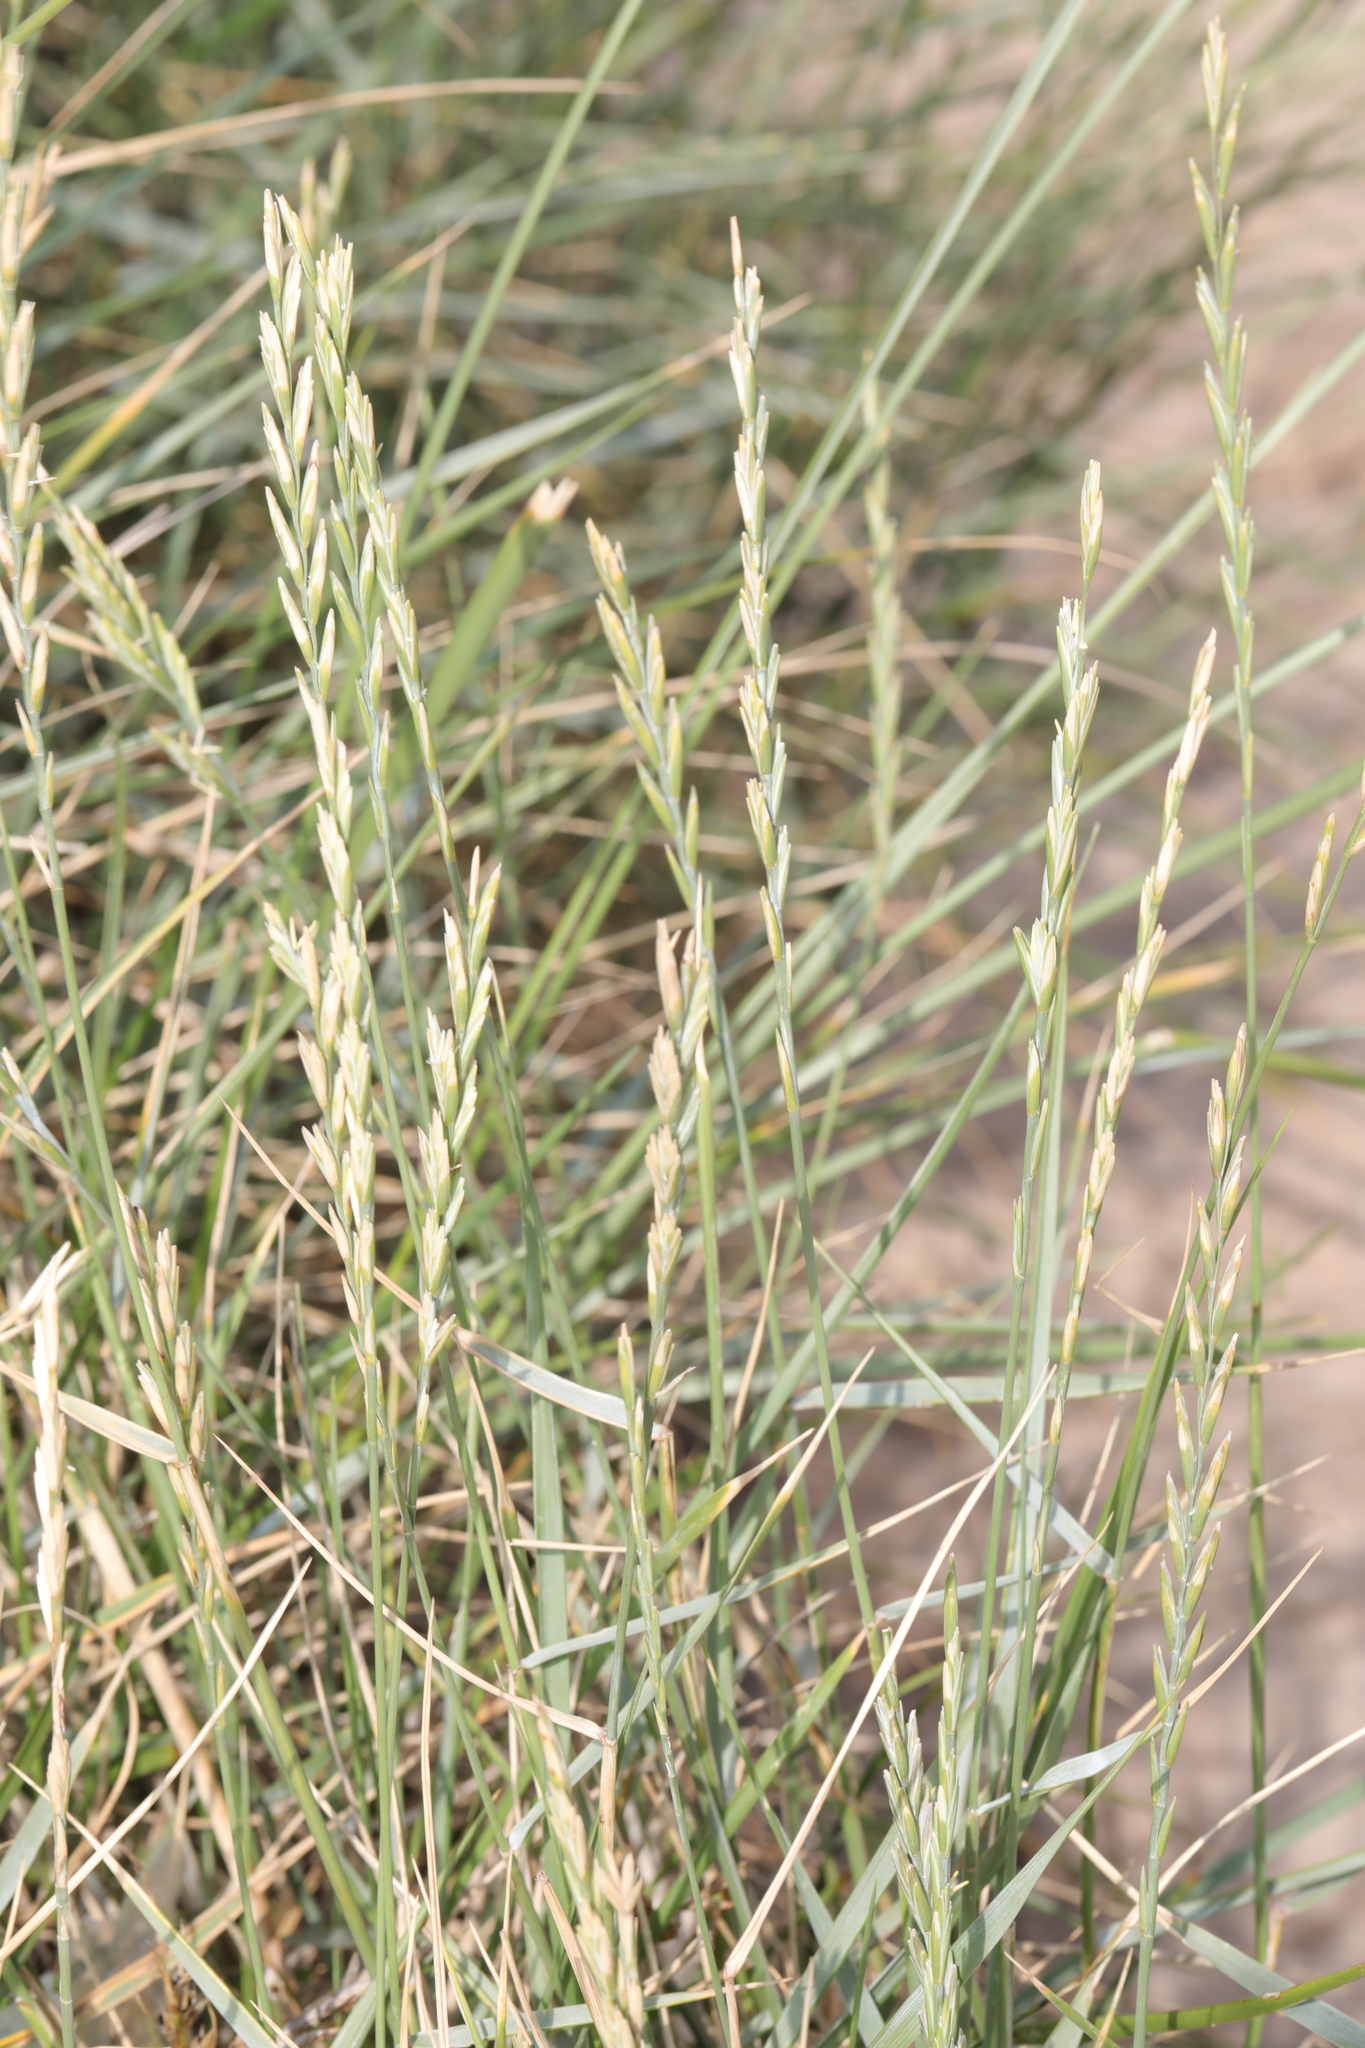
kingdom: Plantae
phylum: Tracheophyta
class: Liliopsida
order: Poales
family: Poaceae
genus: Thinopyrum
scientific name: Thinopyrum junceum
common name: Russian wheatgrass
